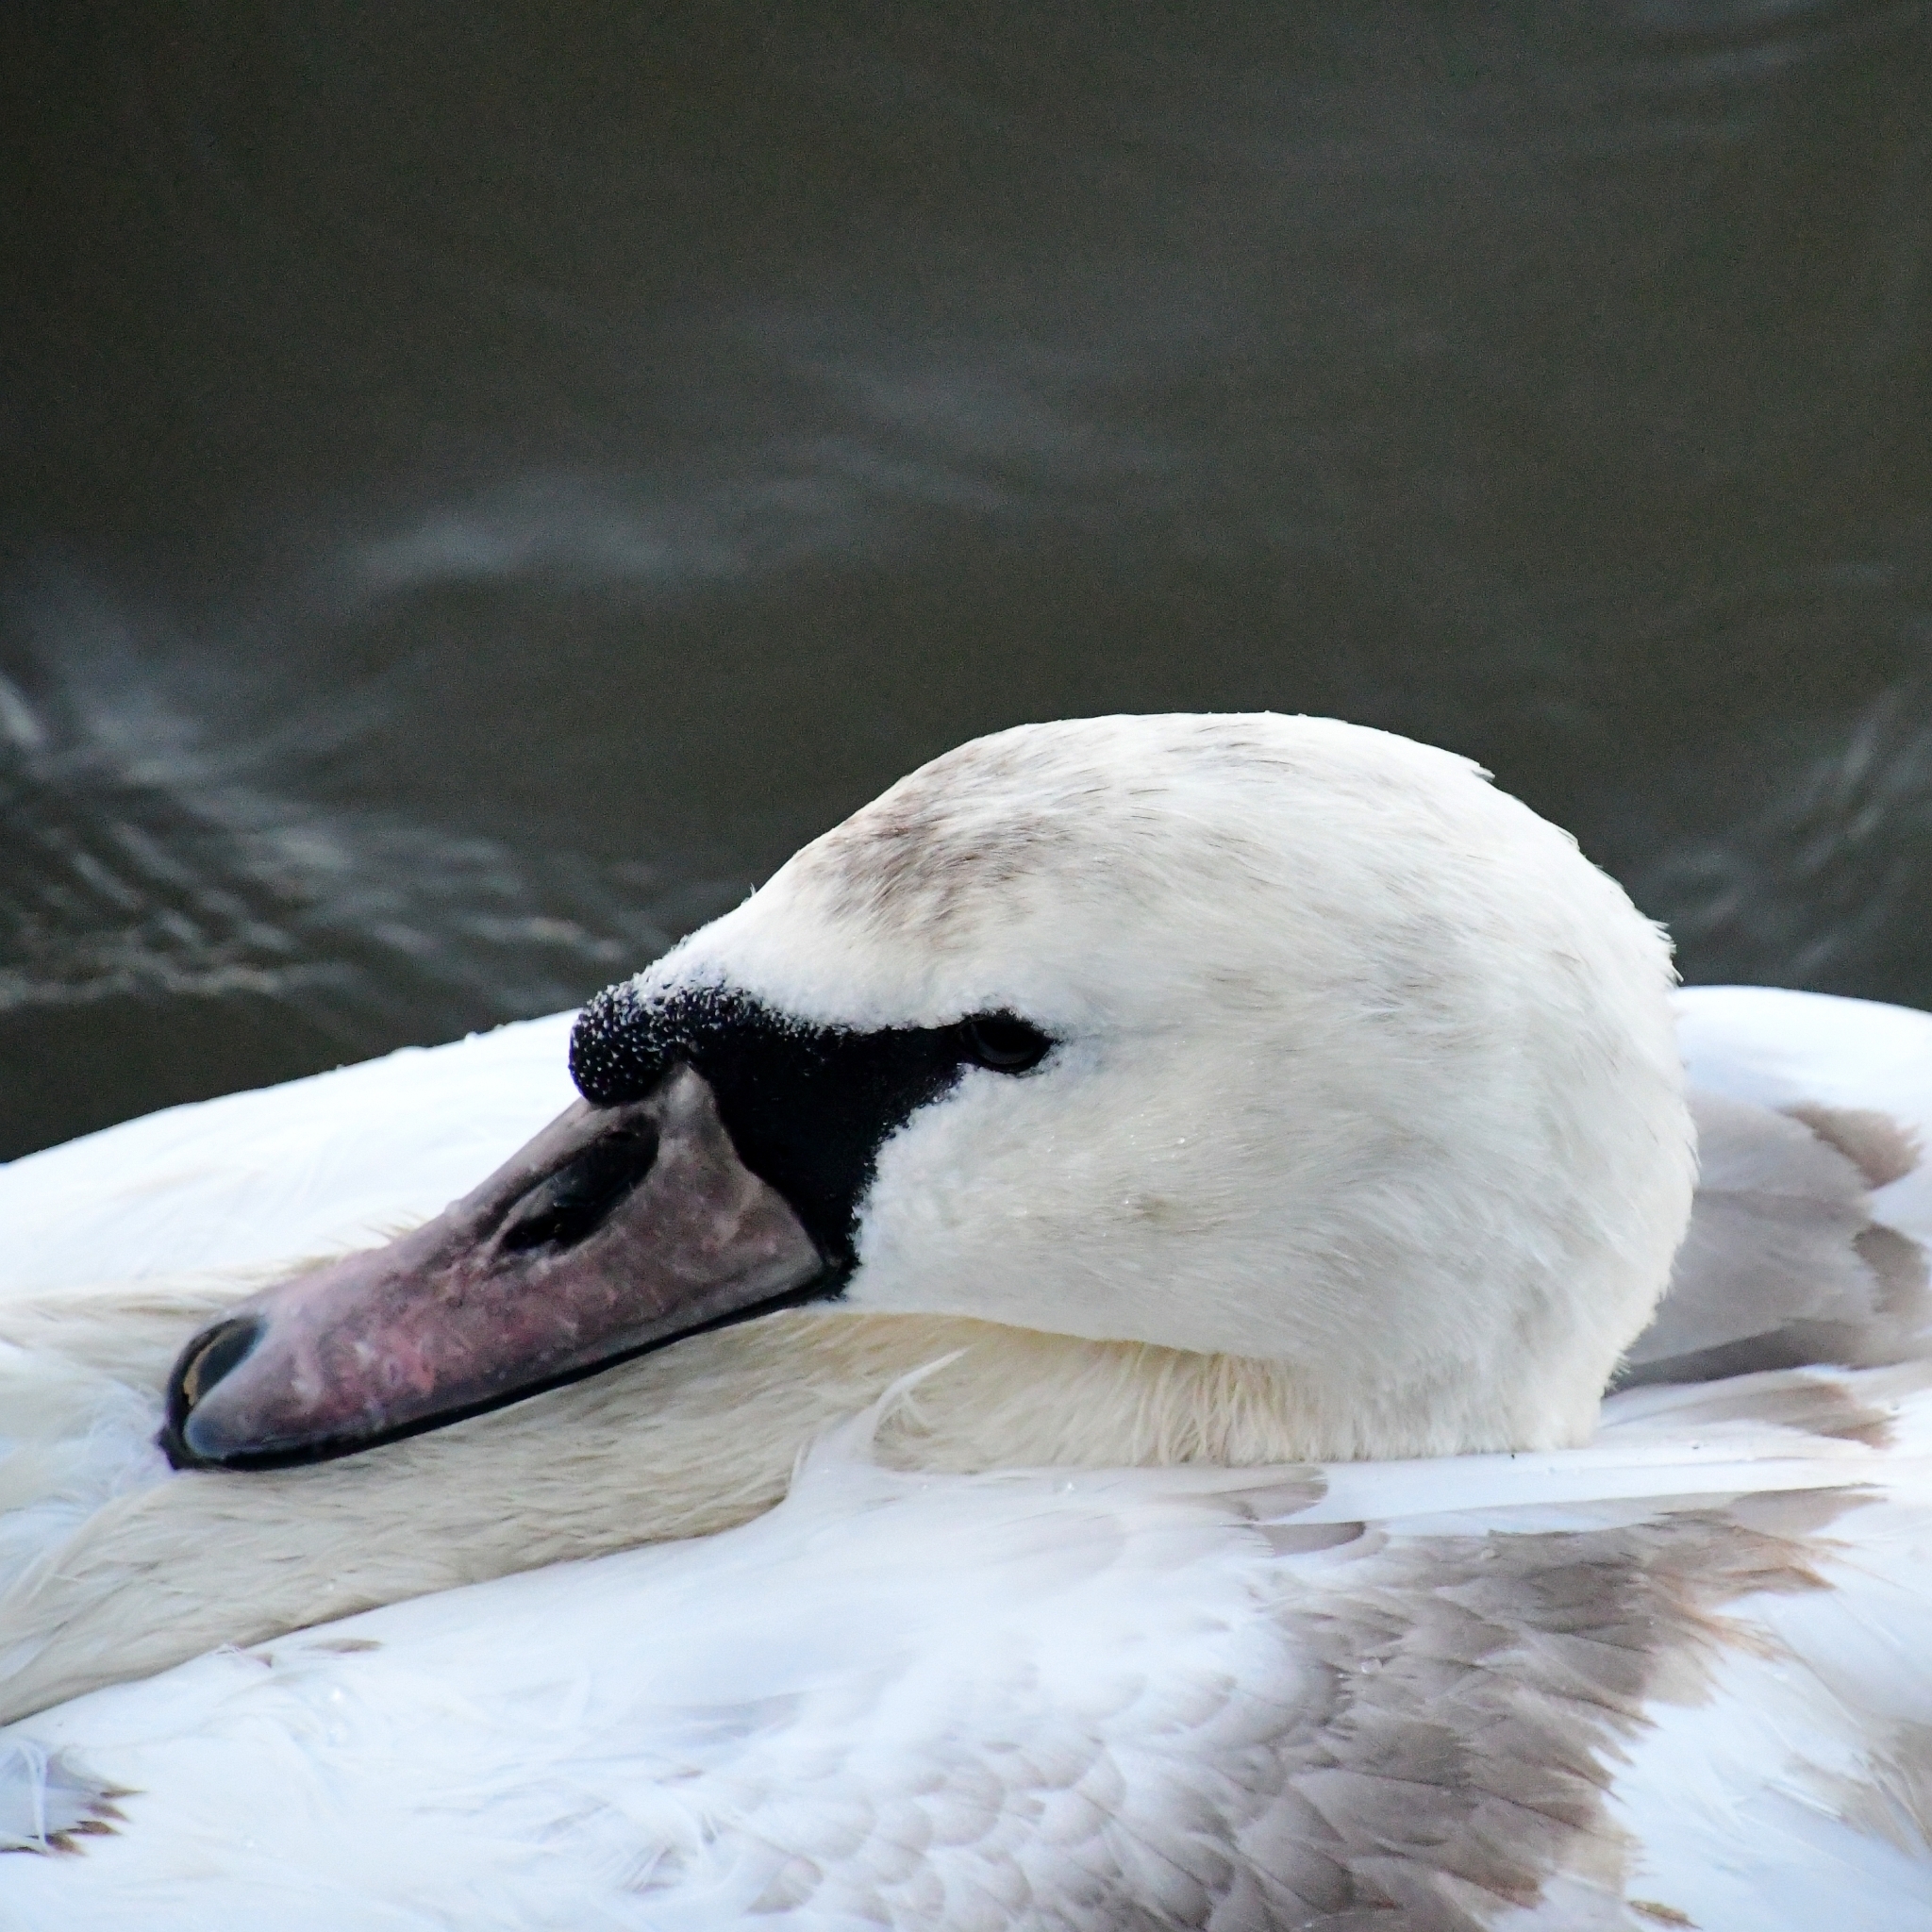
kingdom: Animalia
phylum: Chordata
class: Aves
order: Anseriformes
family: Anatidae
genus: Cygnus
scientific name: Cygnus olor
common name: Mute swan
